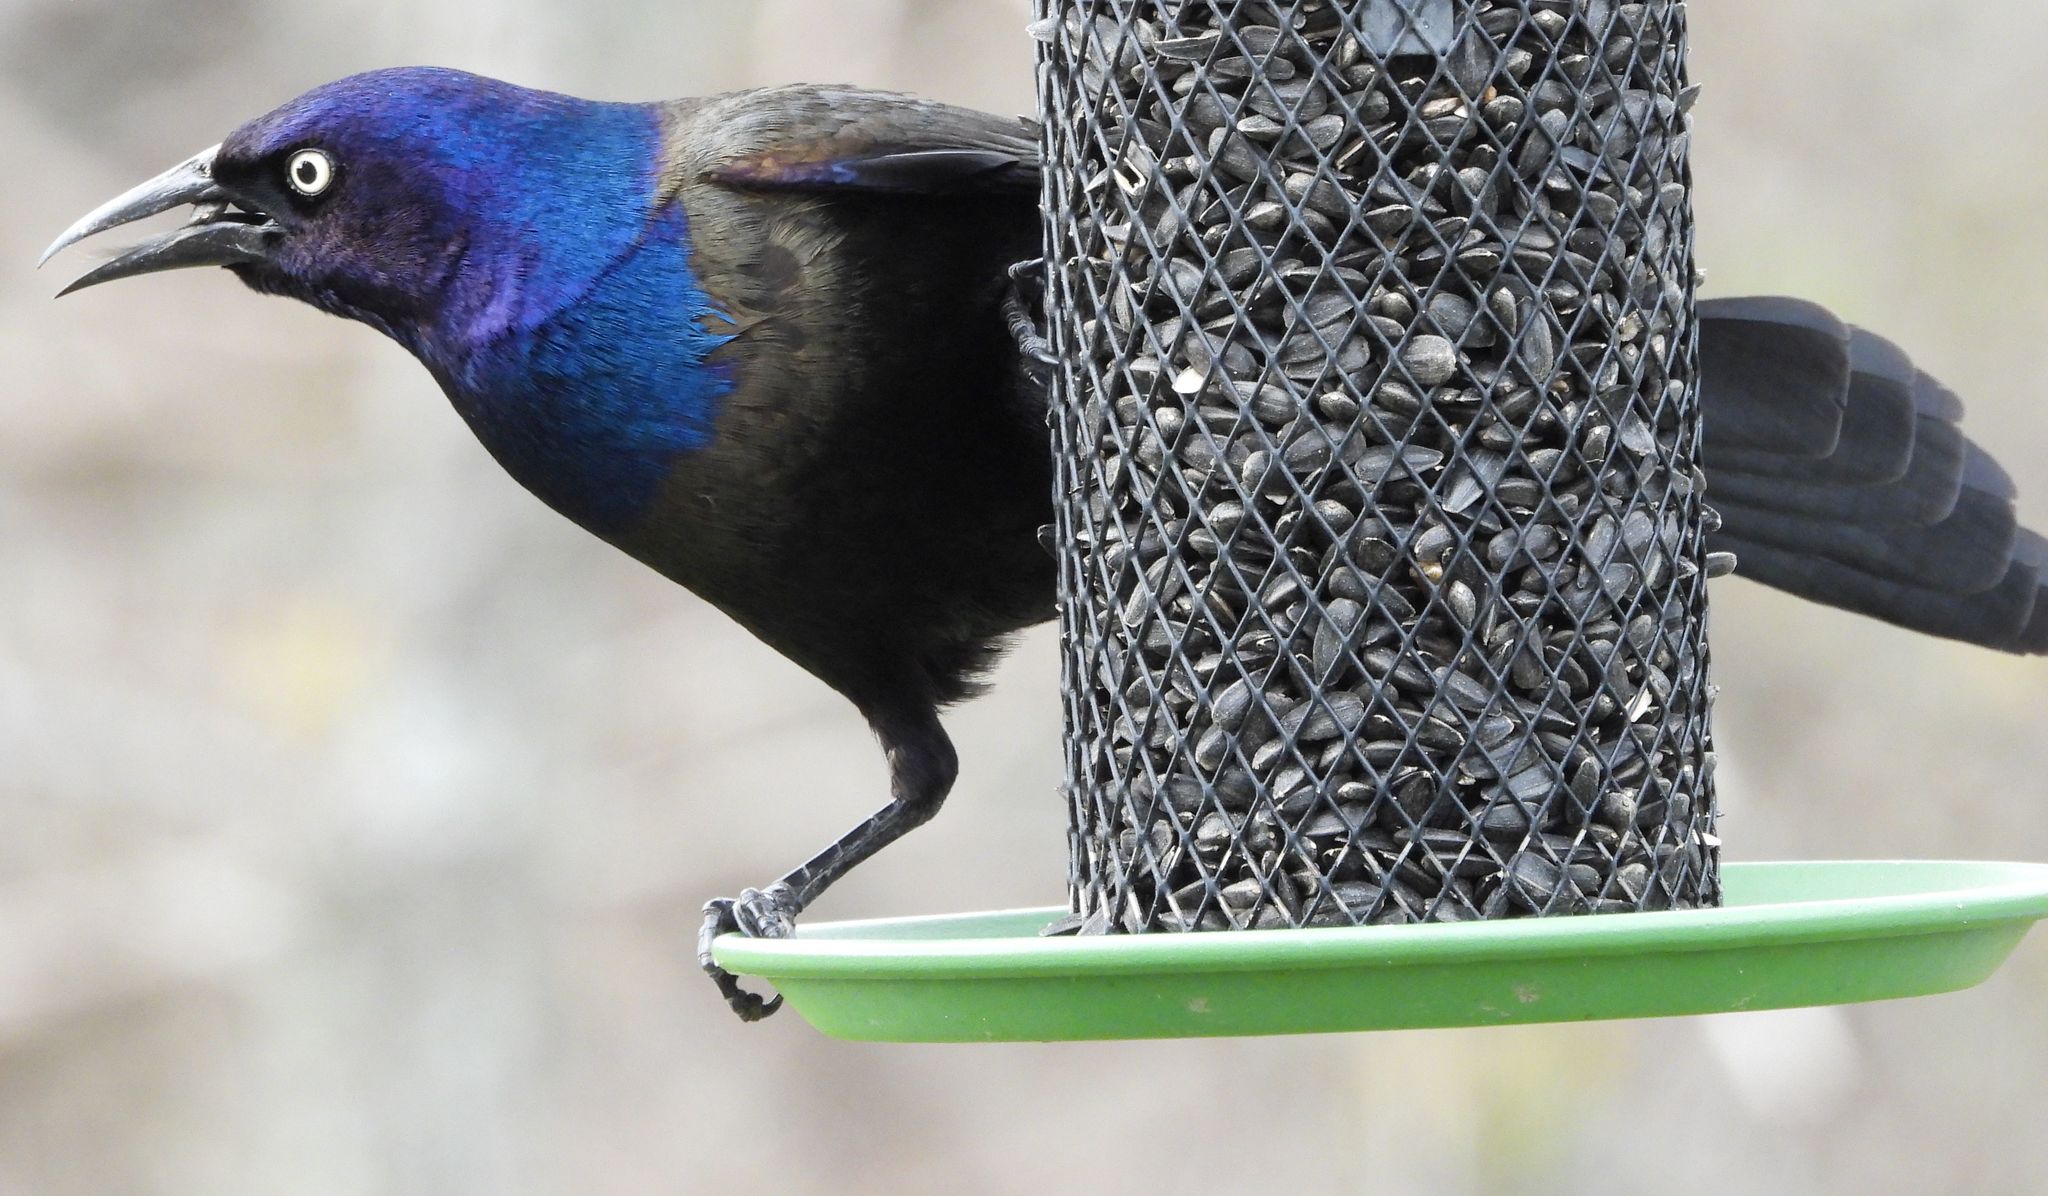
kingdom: Animalia
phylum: Chordata
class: Aves
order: Passeriformes
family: Icteridae
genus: Quiscalus
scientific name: Quiscalus quiscula
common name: Common grackle
